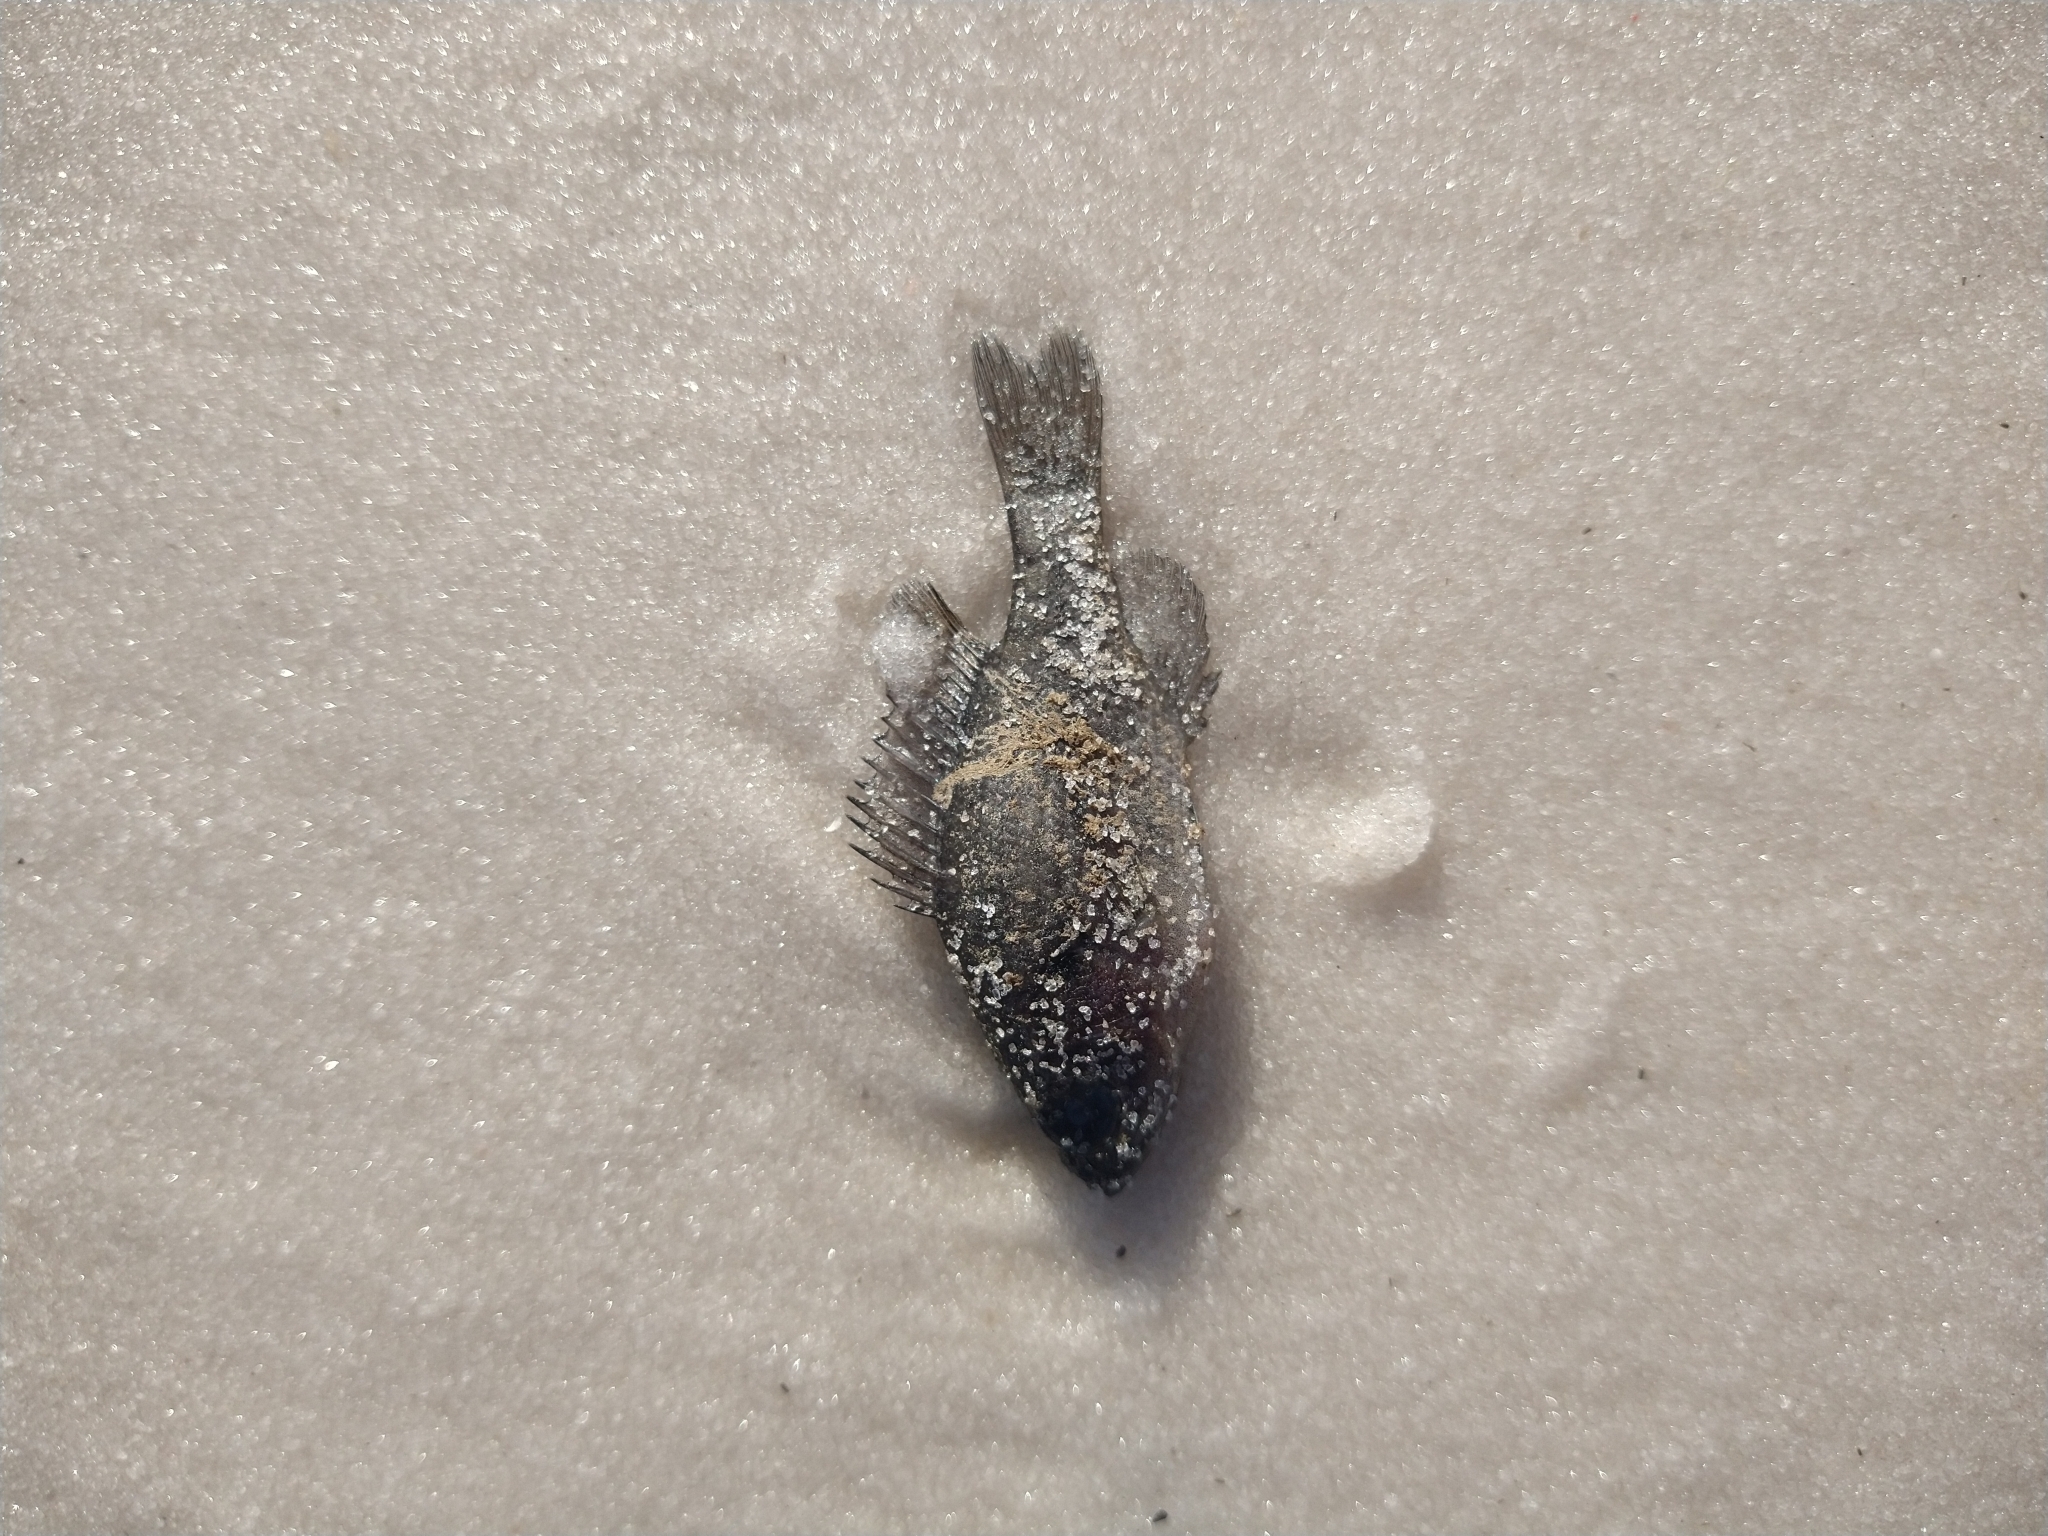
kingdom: Animalia
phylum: Chordata
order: Perciformes
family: Centrarchidae
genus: Lepomis
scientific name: Lepomis gulosus
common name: Warmouth
